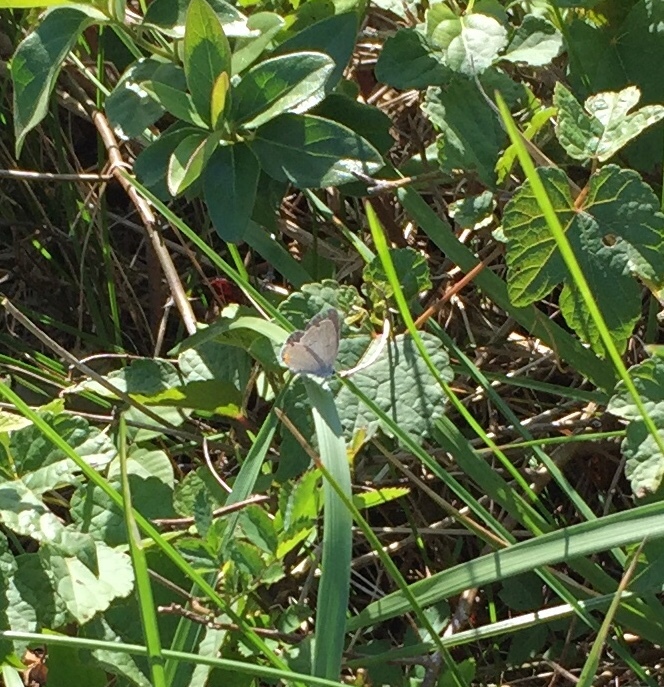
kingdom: Animalia
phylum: Arthropoda
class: Insecta
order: Lepidoptera
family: Lycaenidae
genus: Elkalyce
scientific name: Elkalyce comyntas
